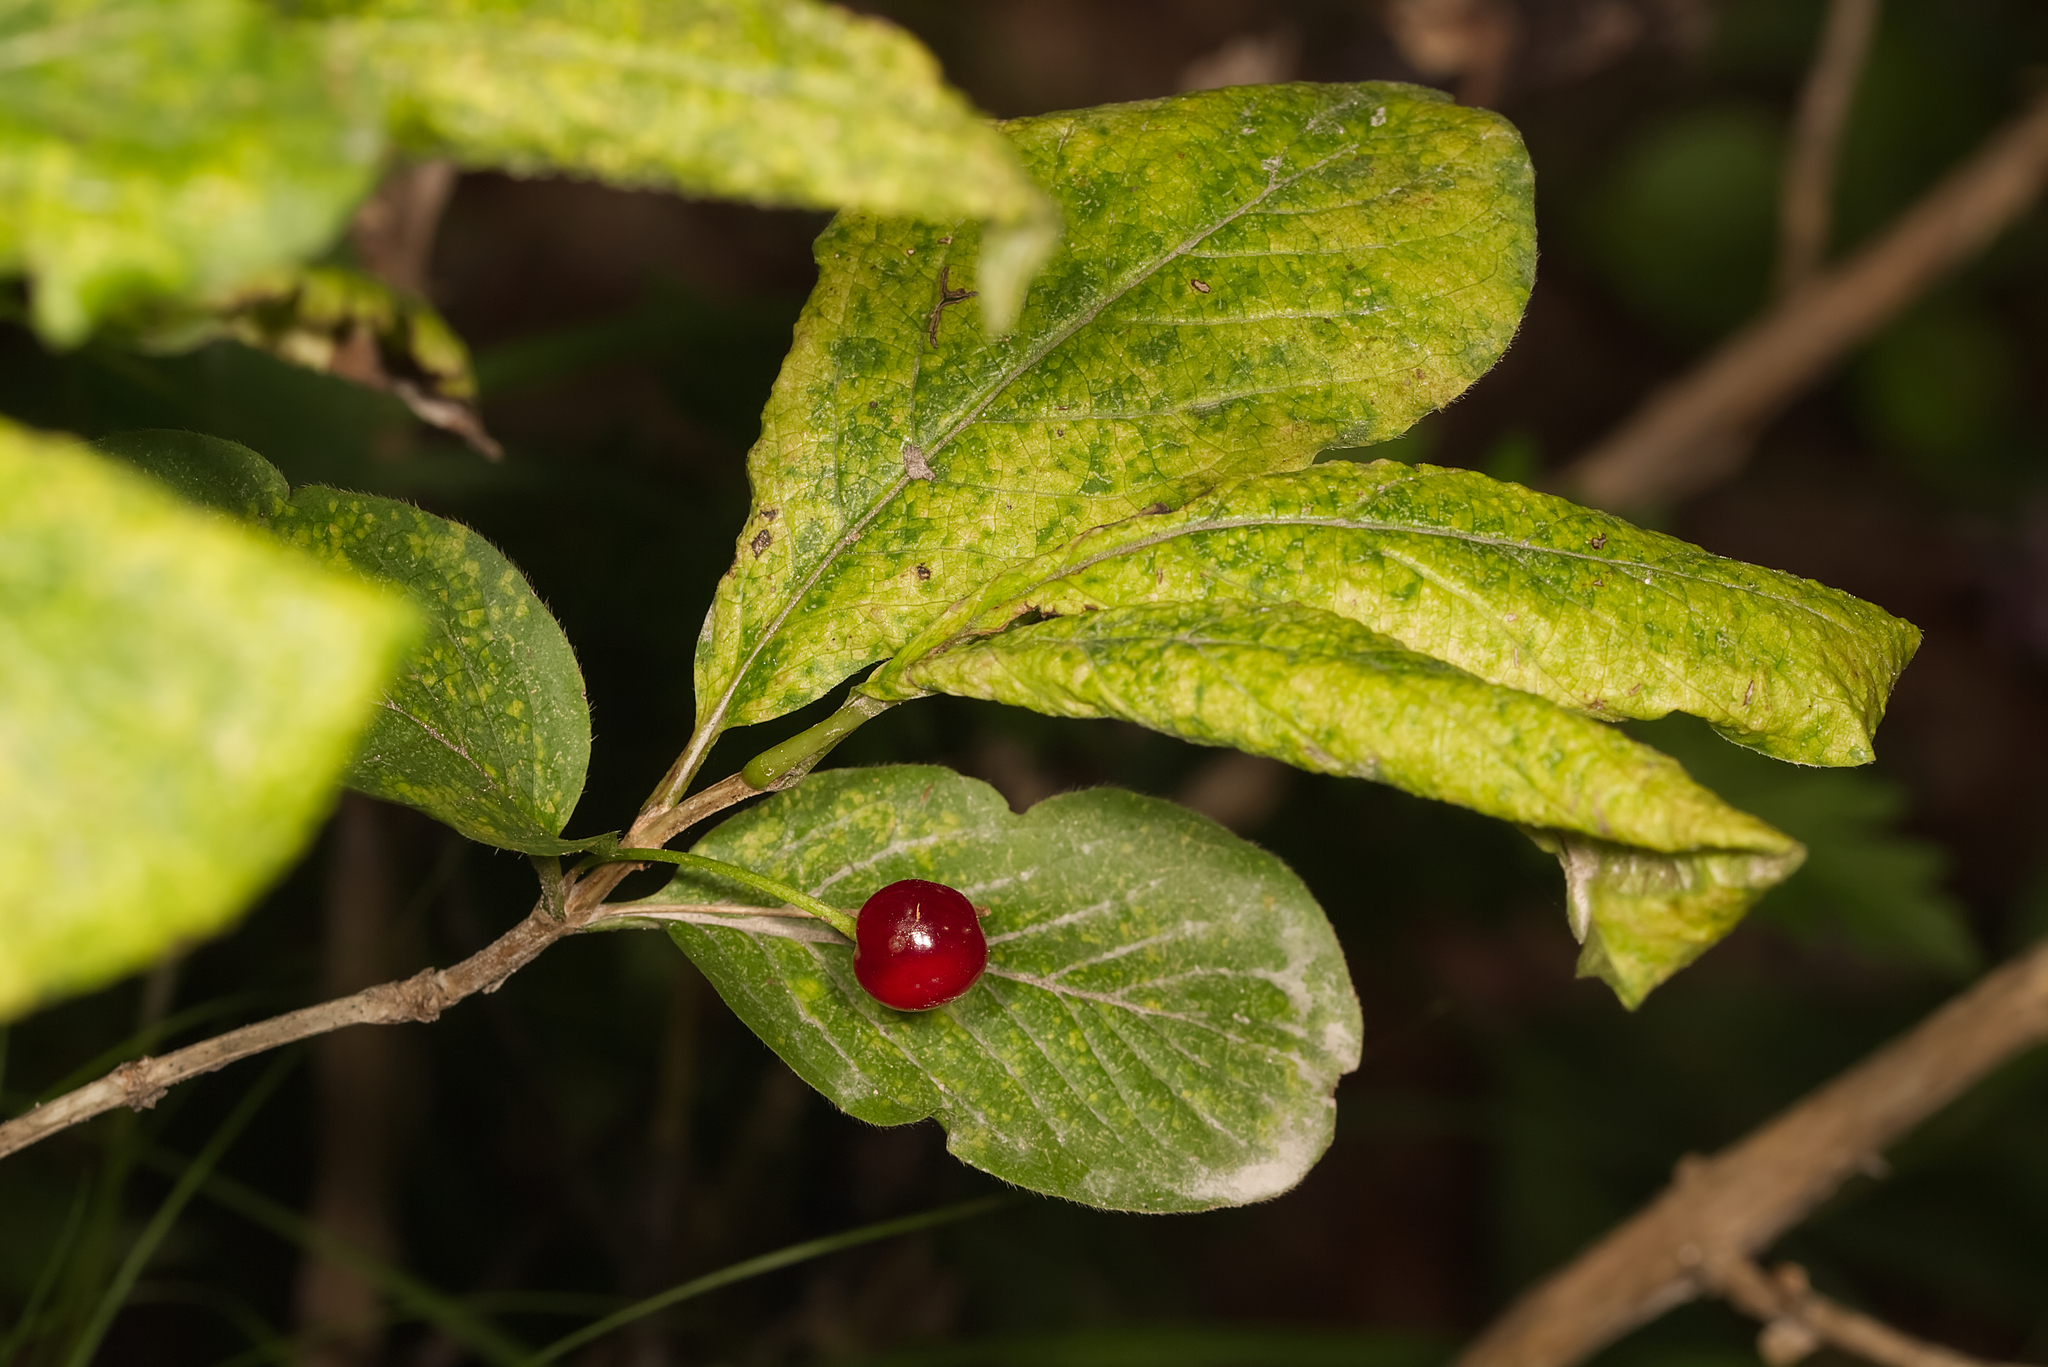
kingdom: Plantae
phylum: Tracheophyta
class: Magnoliopsida
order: Dipsacales
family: Caprifoliaceae
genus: Lonicera
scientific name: Lonicera alpigena
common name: Alpine honeysuckle
